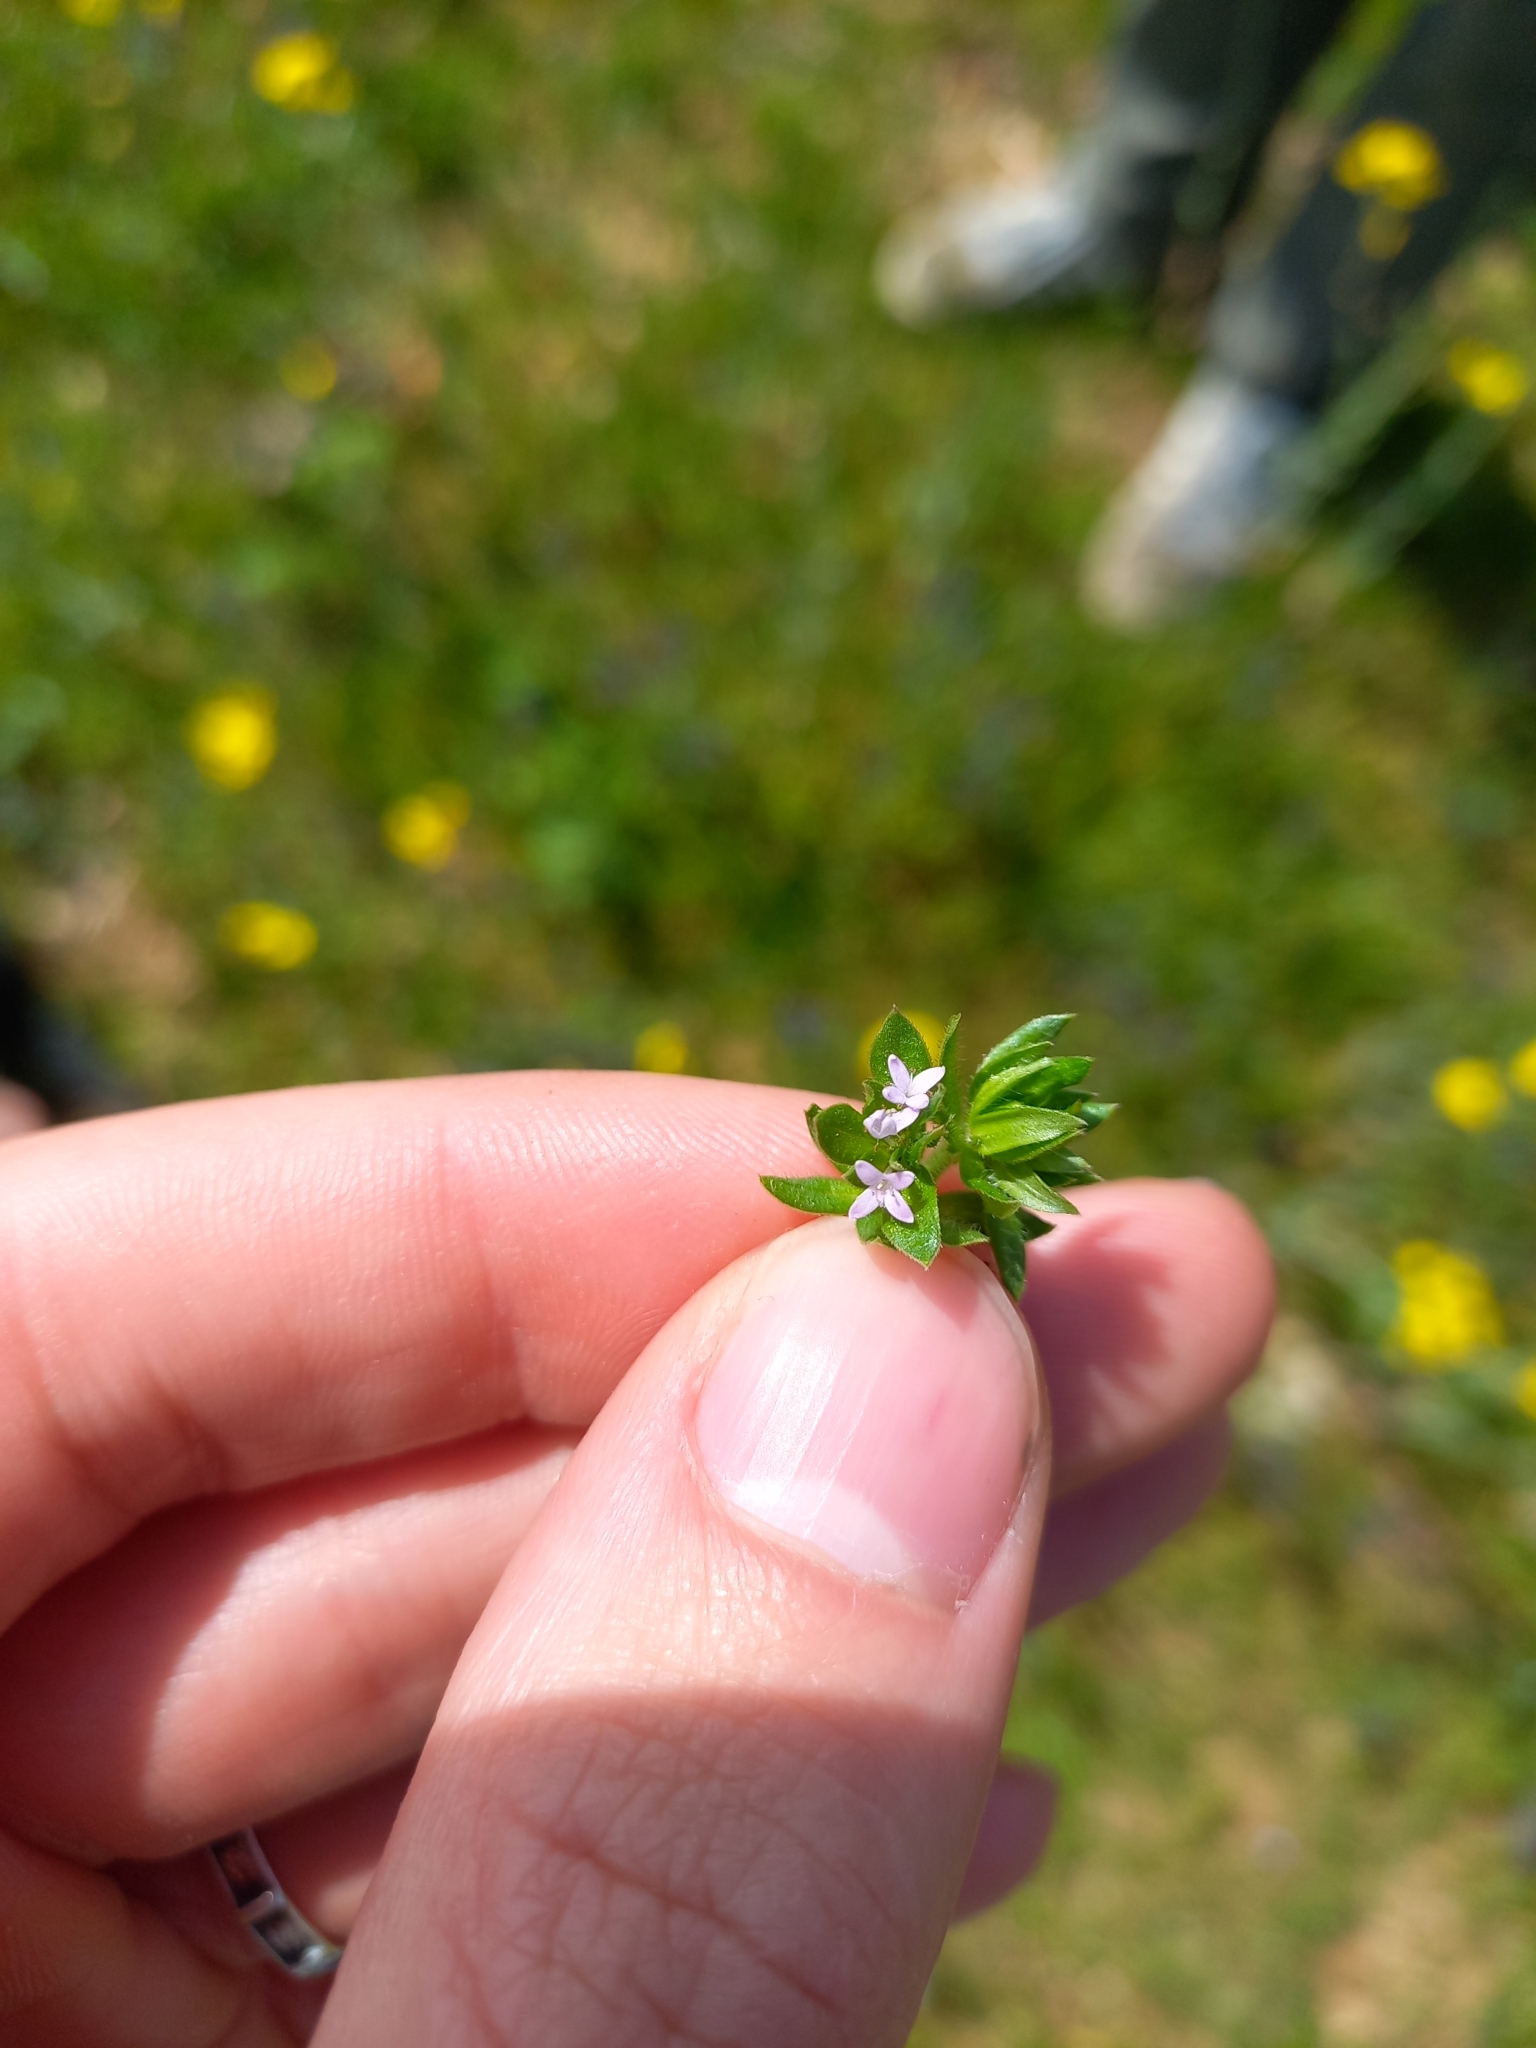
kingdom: Plantae
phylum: Tracheophyta
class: Magnoliopsida
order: Gentianales
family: Rubiaceae
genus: Sherardia
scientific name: Sherardia arvensis
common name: Field madder
